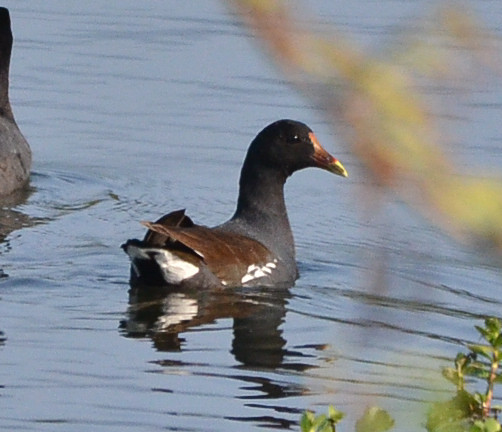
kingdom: Animalia
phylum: Chordata
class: Aves
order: Gruiformes
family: Rallidae
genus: Gallinula
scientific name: Gallinula chloropus
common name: Common moorhen
